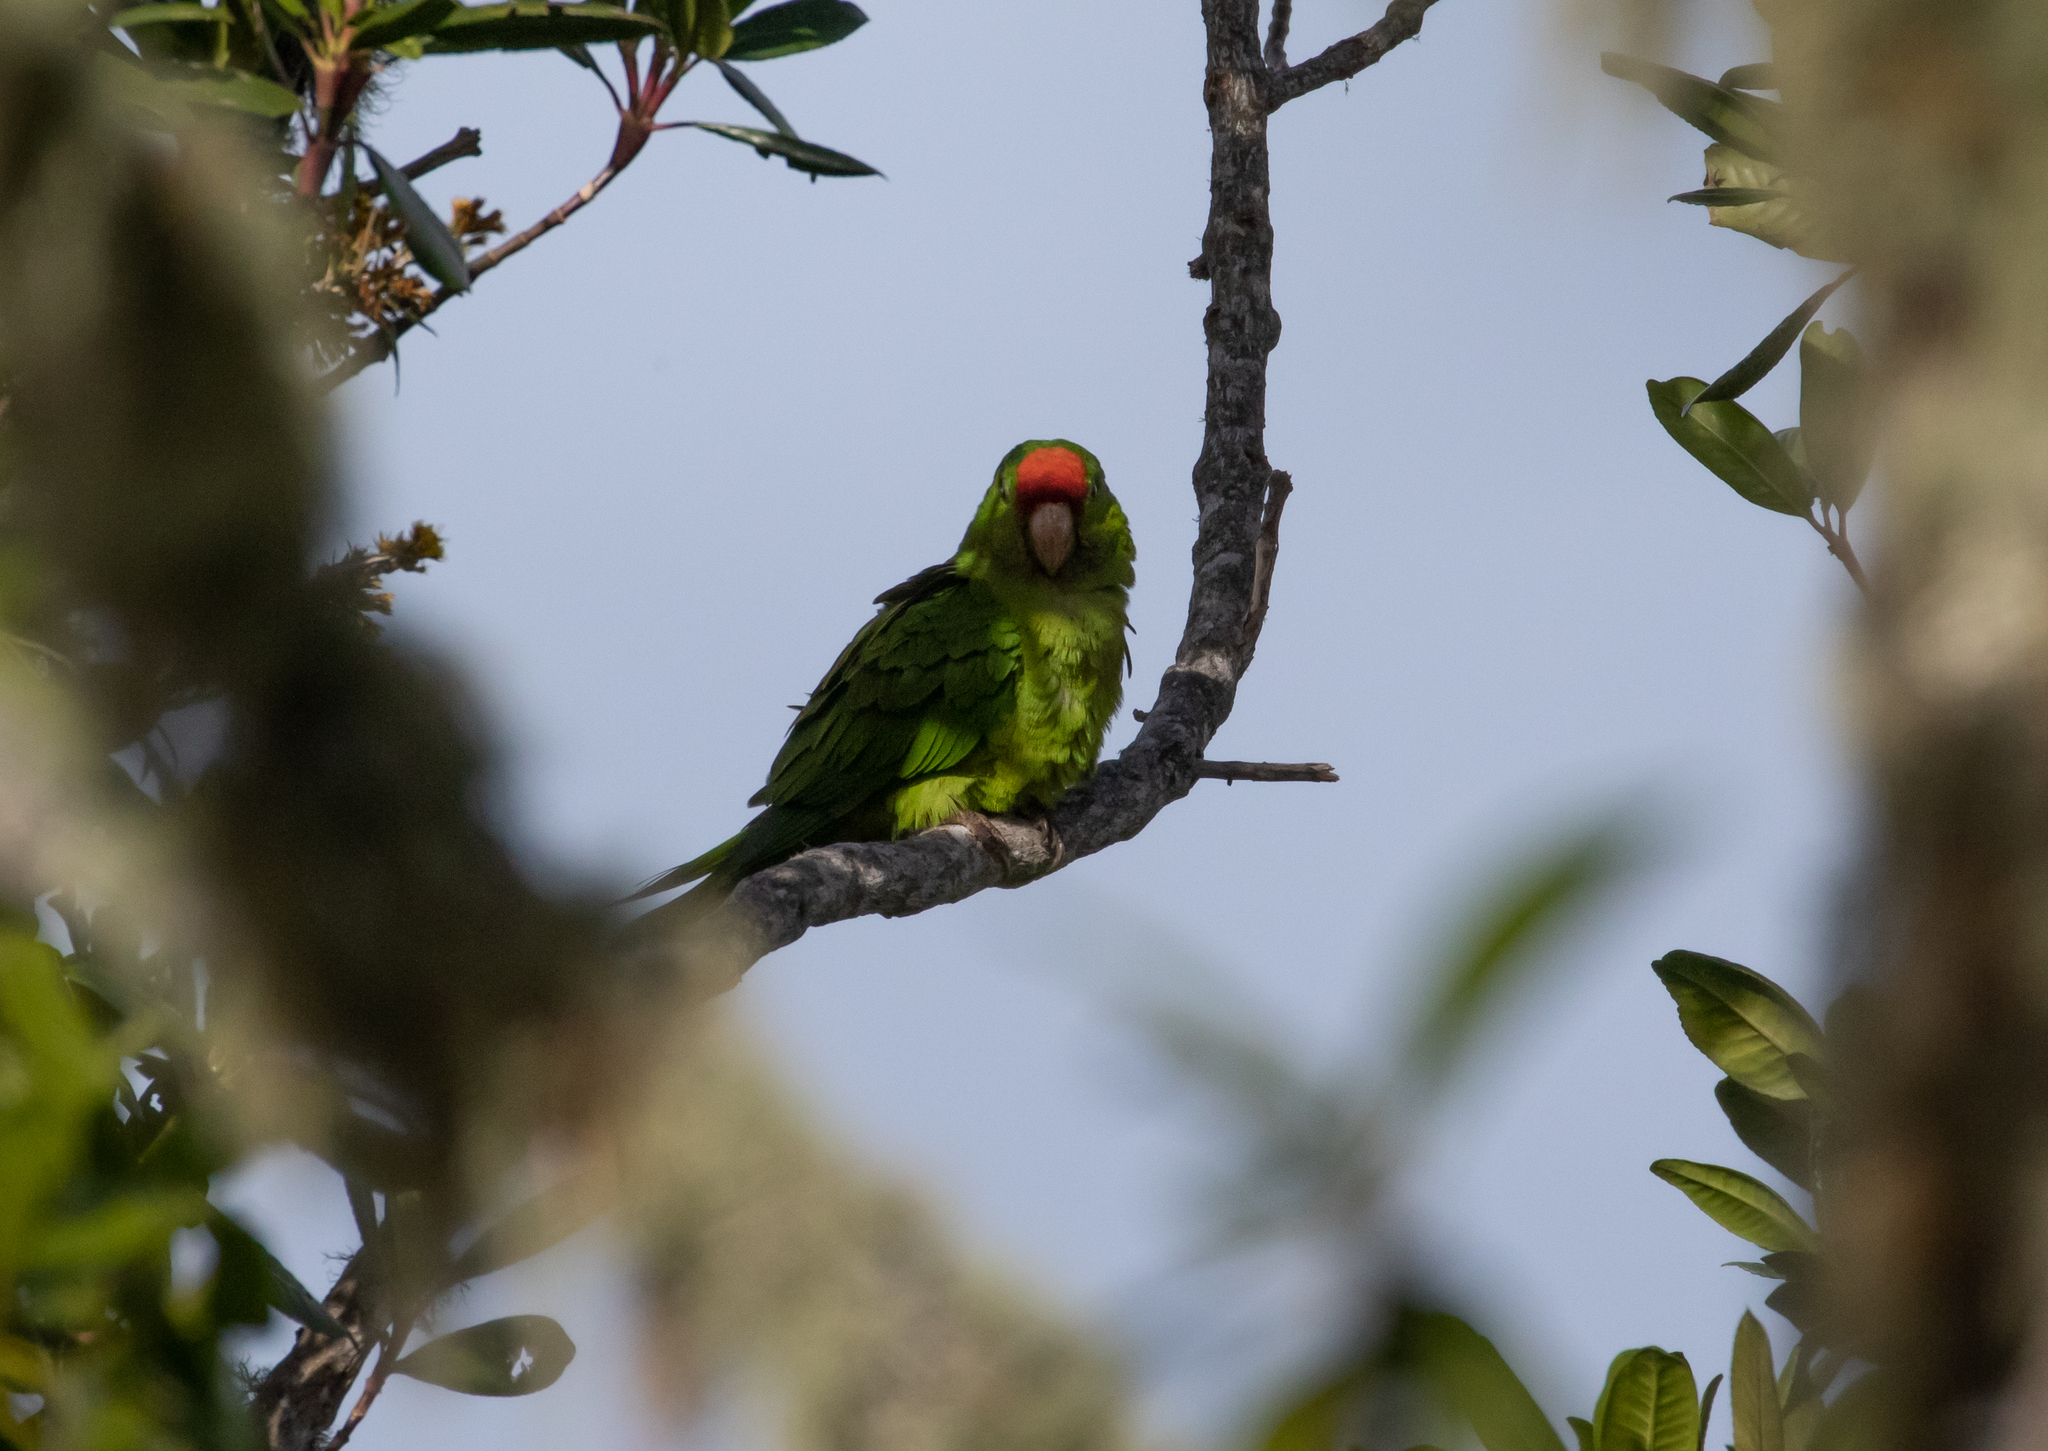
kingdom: Animalia
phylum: Chordata
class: Aves
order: Psittaciformes
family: Psittacidae
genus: Aratinga
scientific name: Aratinga wagleri
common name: Scarlet-fronted parakeet
